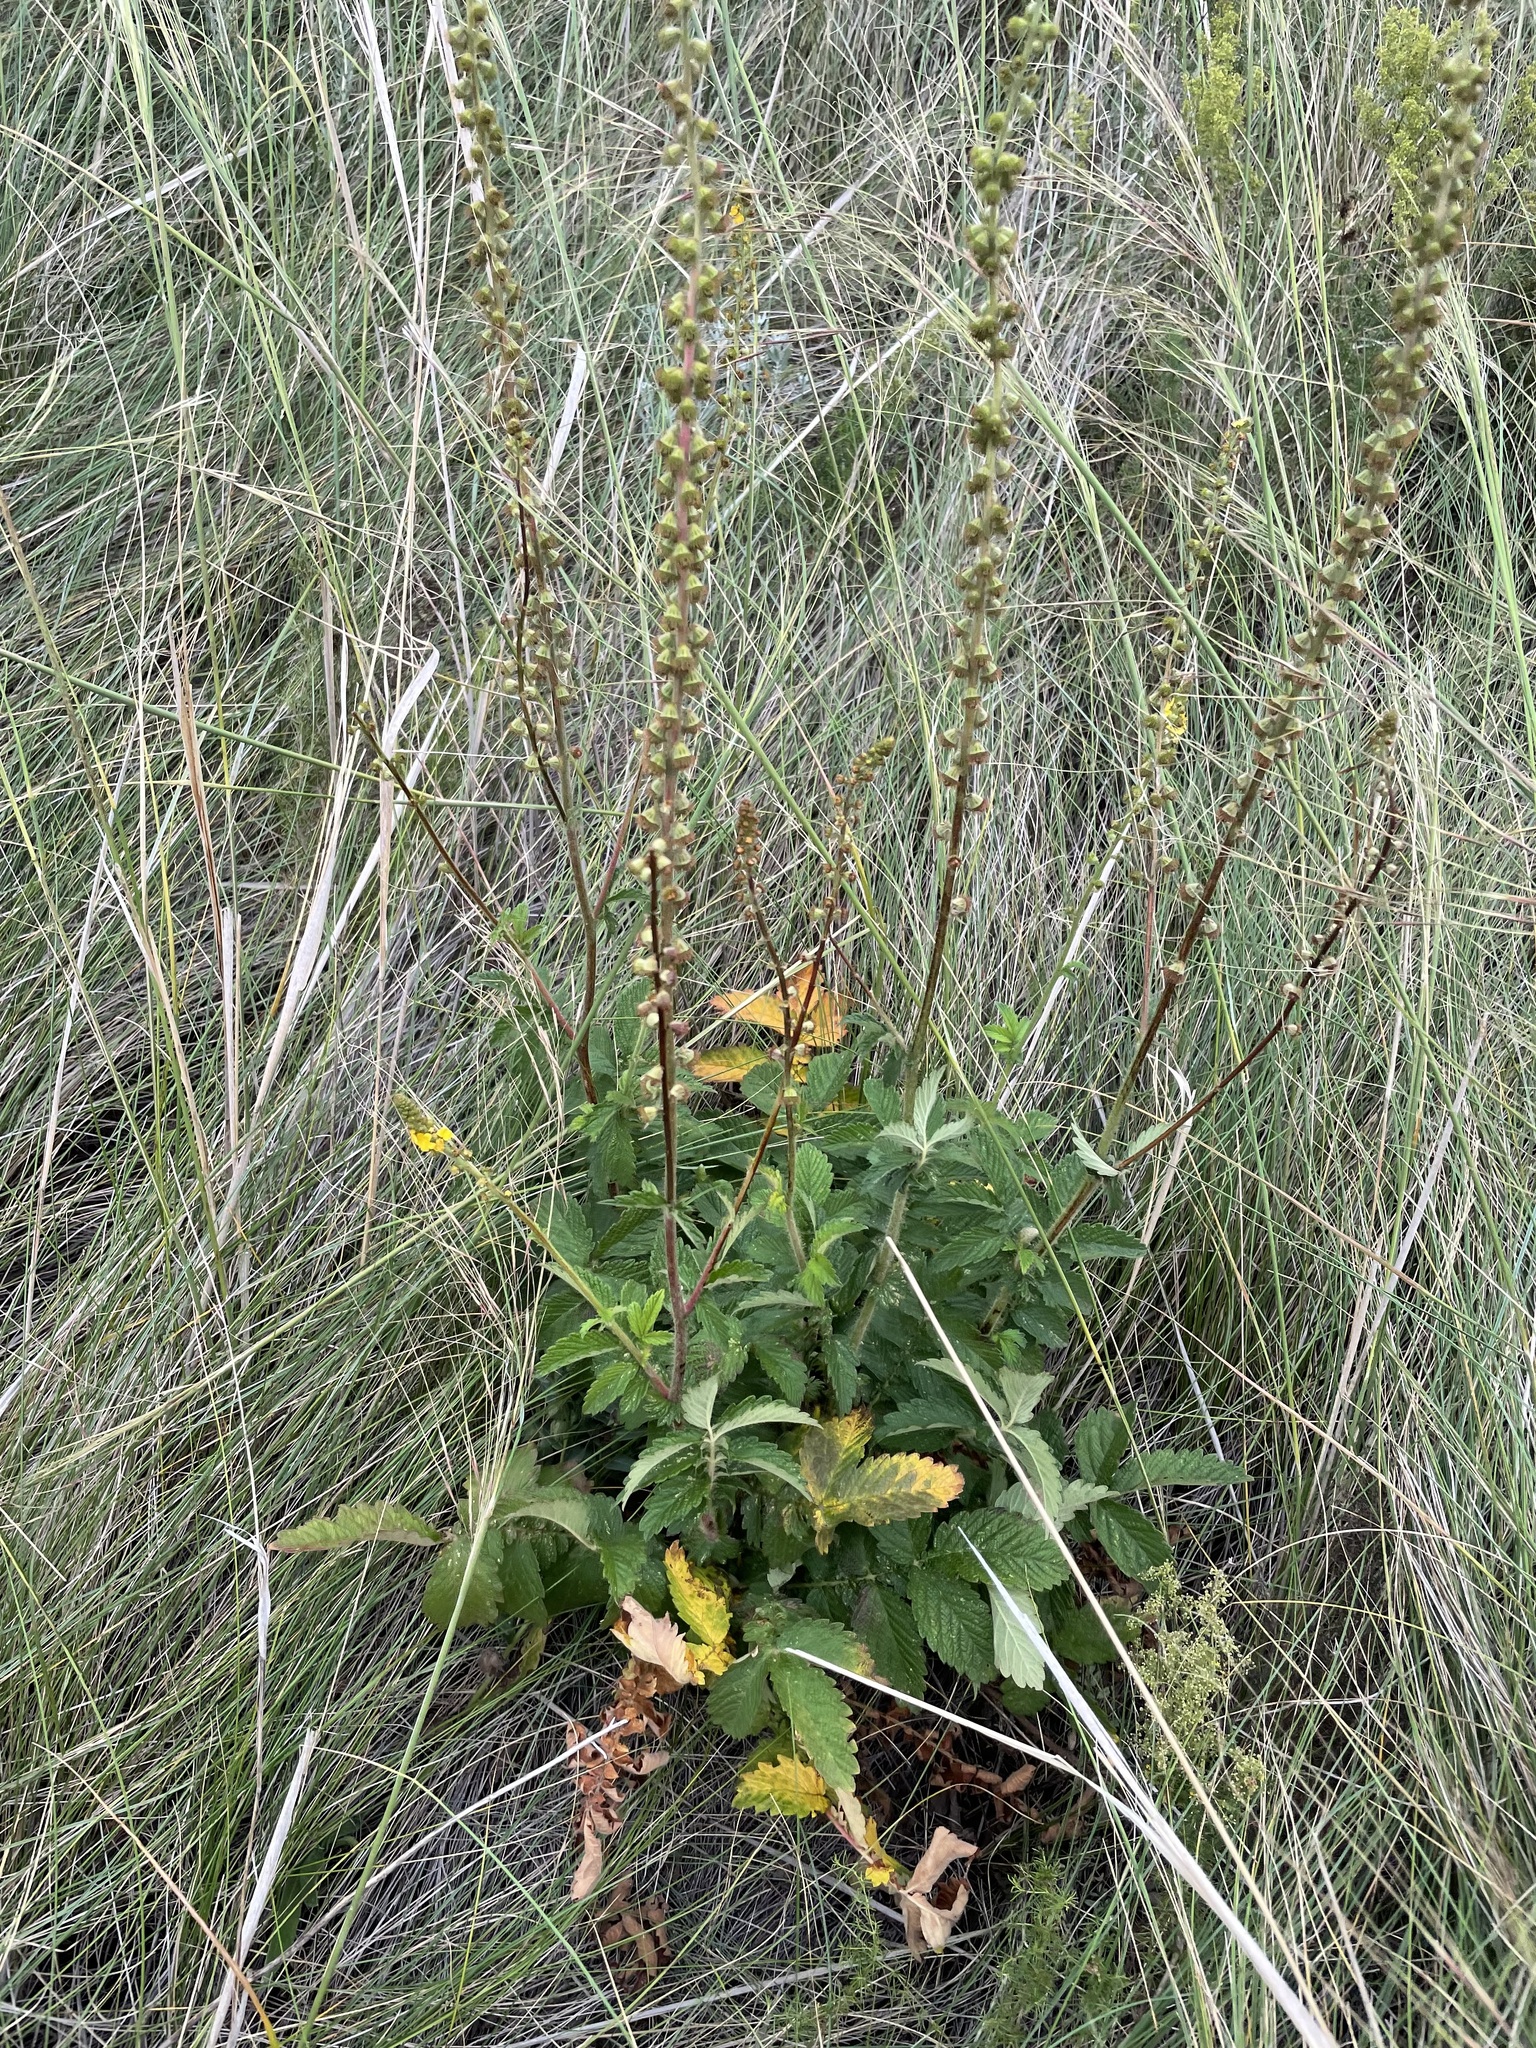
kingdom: Plantae
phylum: Tracheophyta
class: Magnoliopsida
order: Rosales
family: Rosaceae
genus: Agrimonia
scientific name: Agrimonia eupatoria
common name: Agrimony
